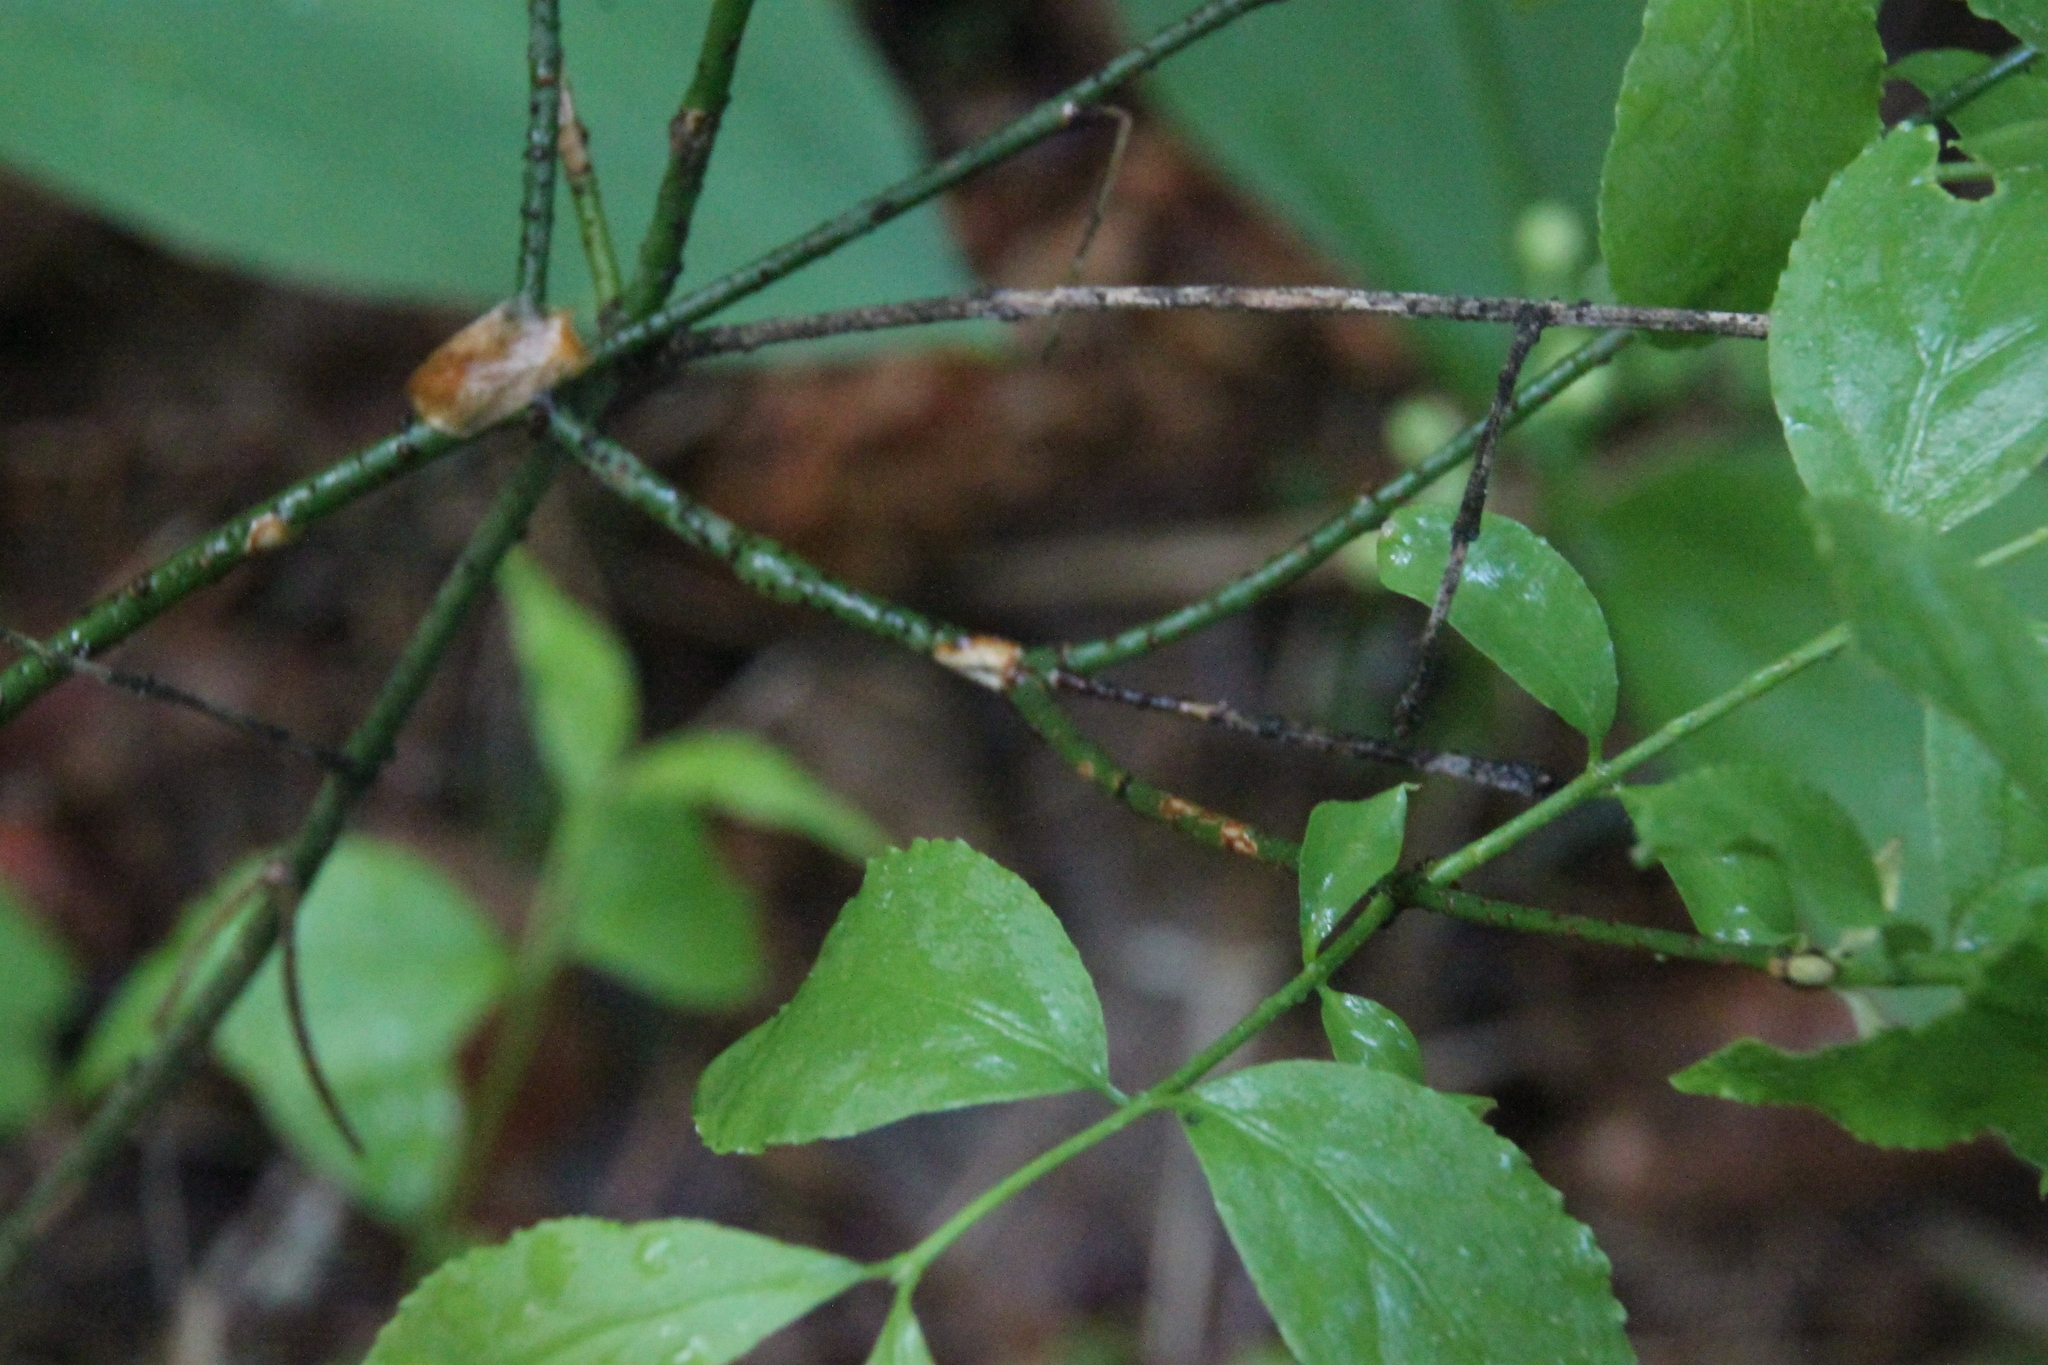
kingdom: Plantae
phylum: Tracheophyta
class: Magnoliopsida
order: Celastrales
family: Celastraceae
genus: Euonymus
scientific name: Euonymus verrucosus
